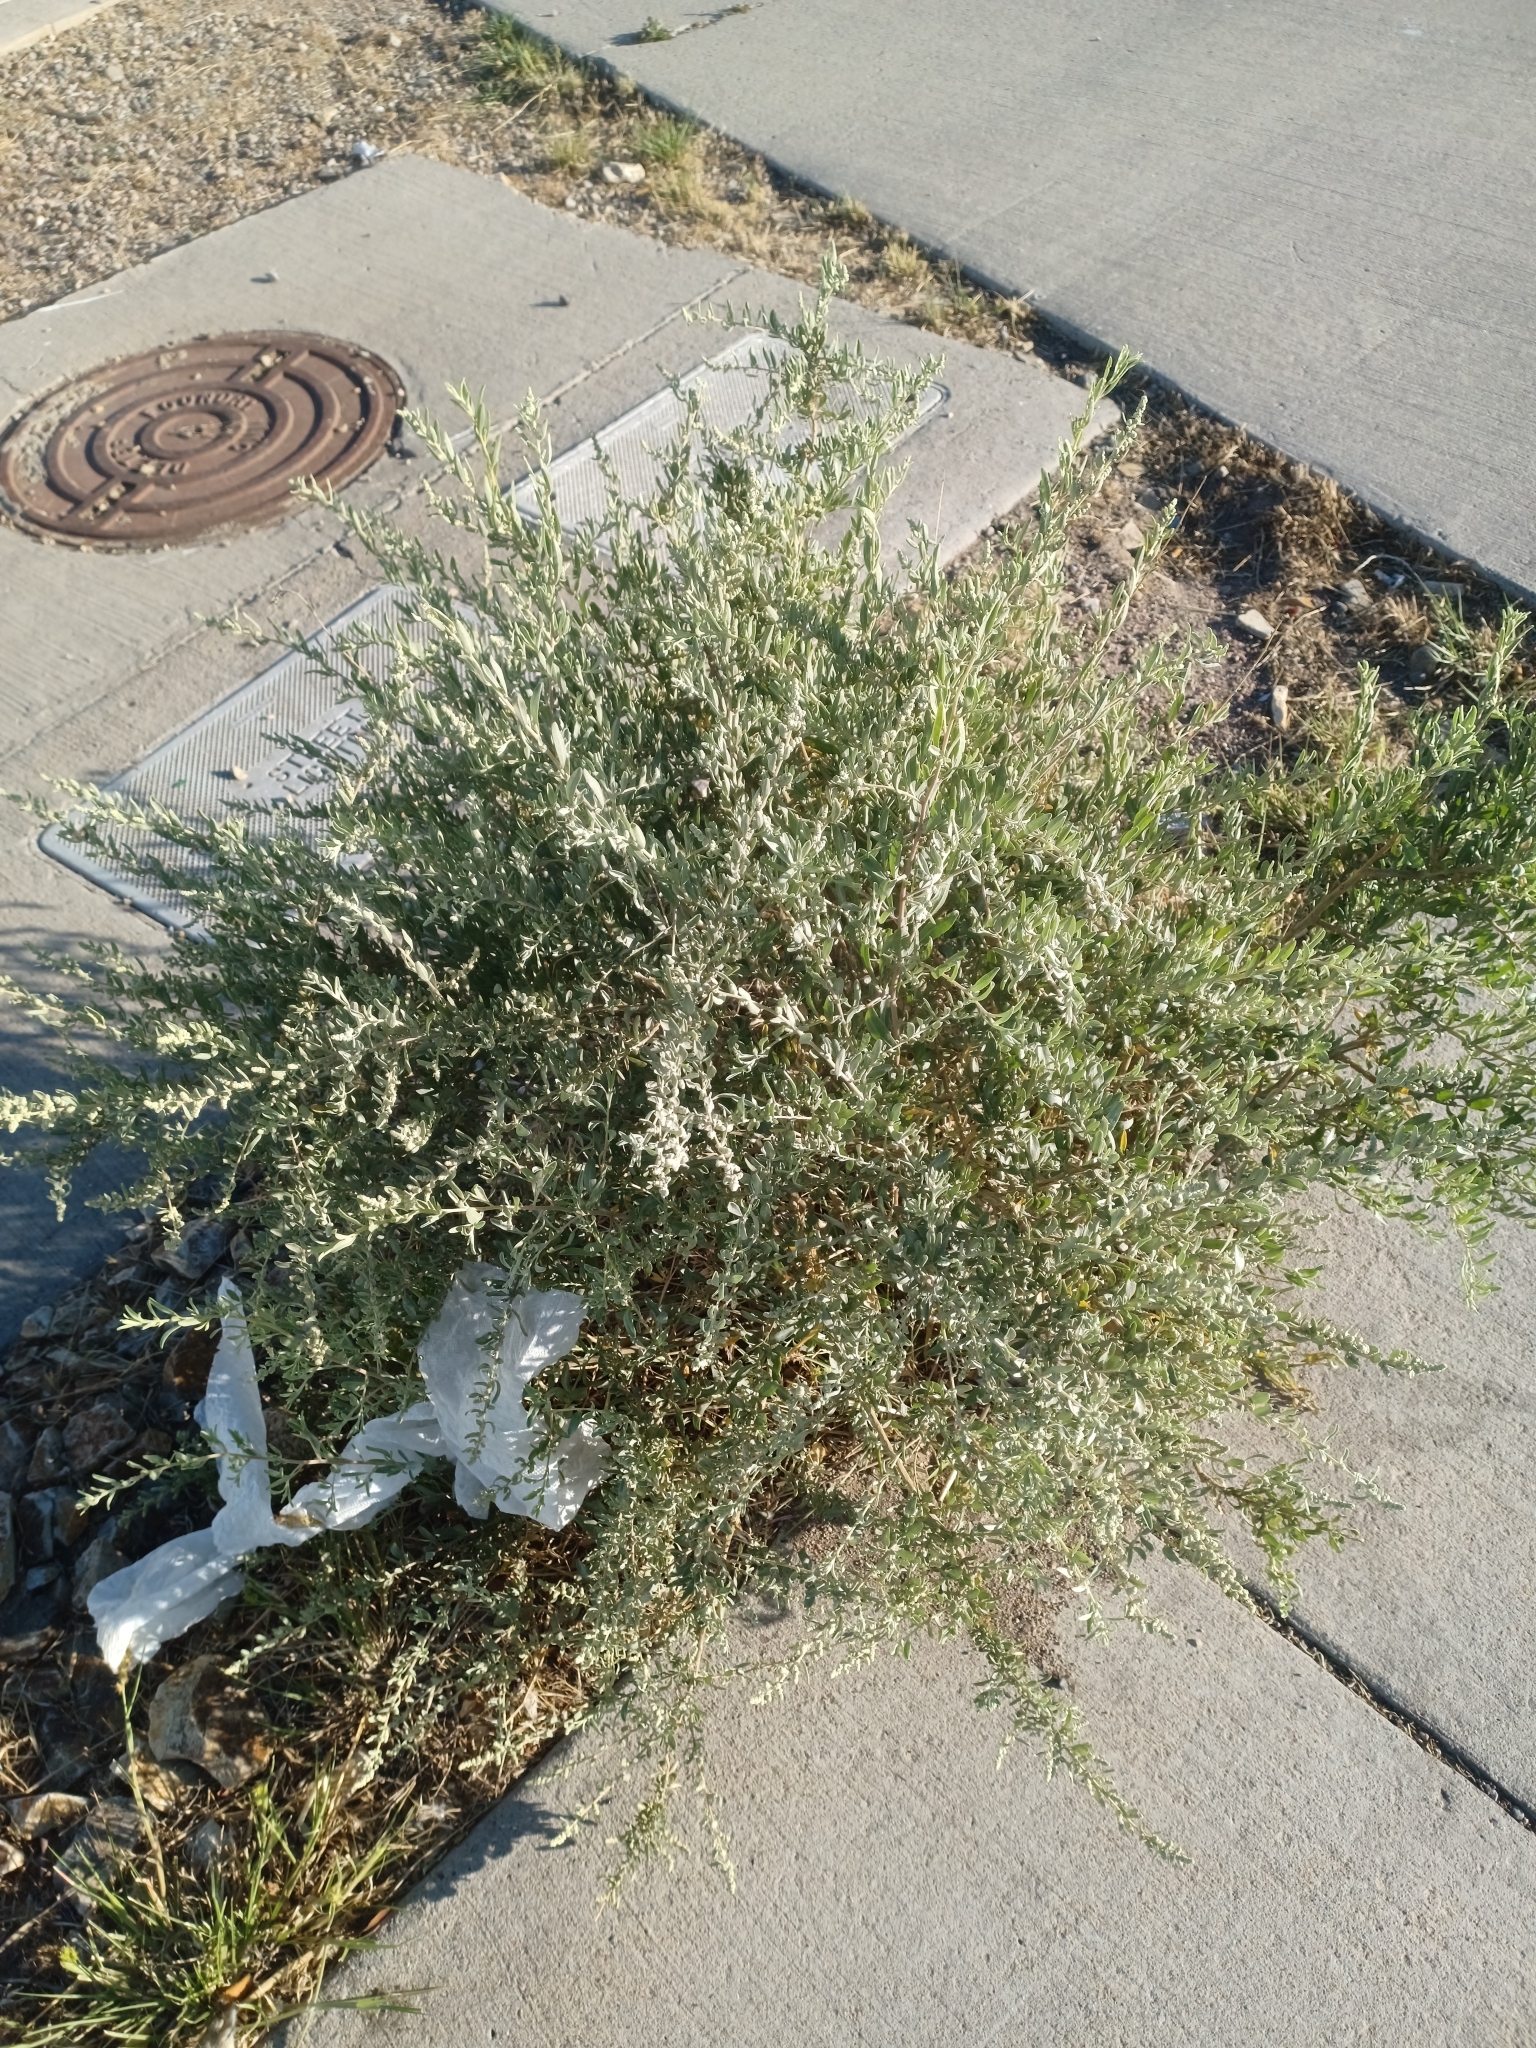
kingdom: Plantae
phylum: Tracheophyta
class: Magnoliopsida
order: Caryophyllales
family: Amaranthaceae
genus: Atriplex
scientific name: Atriplex canescens
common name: Four-wing saltbush
